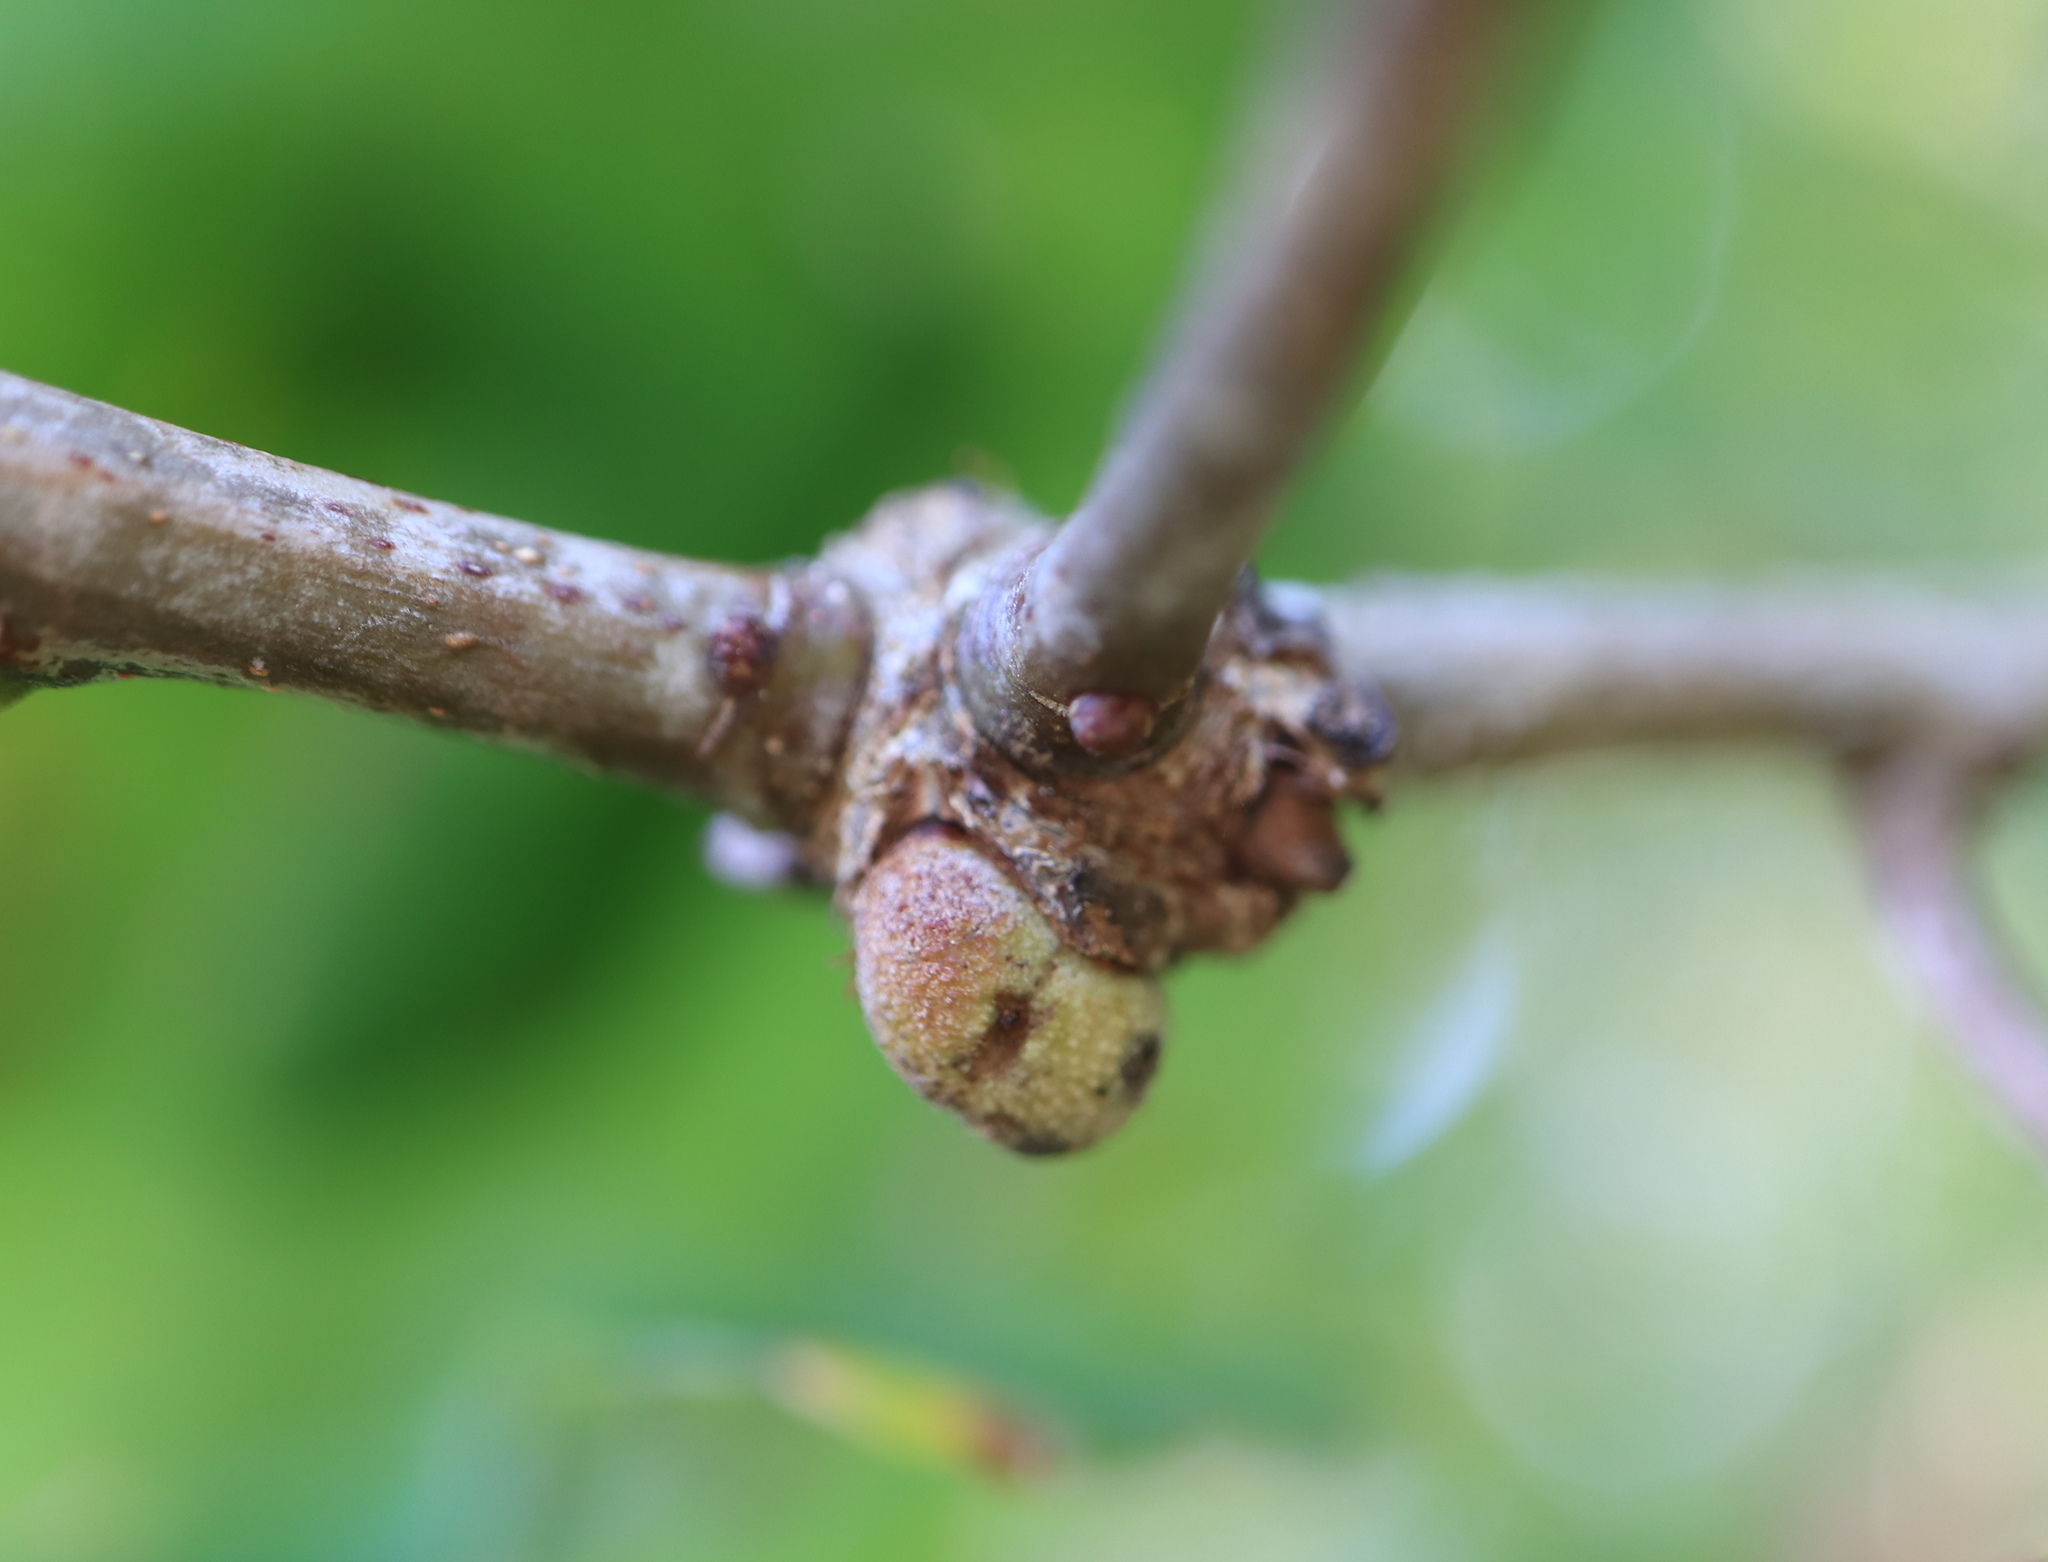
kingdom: Animalia
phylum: Arthropoda
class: Insecta
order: Hymenoptera
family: Cynipidae
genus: Disholcaspis
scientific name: Disholcaspis quercusglobulus
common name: Round bullet gall wasp
